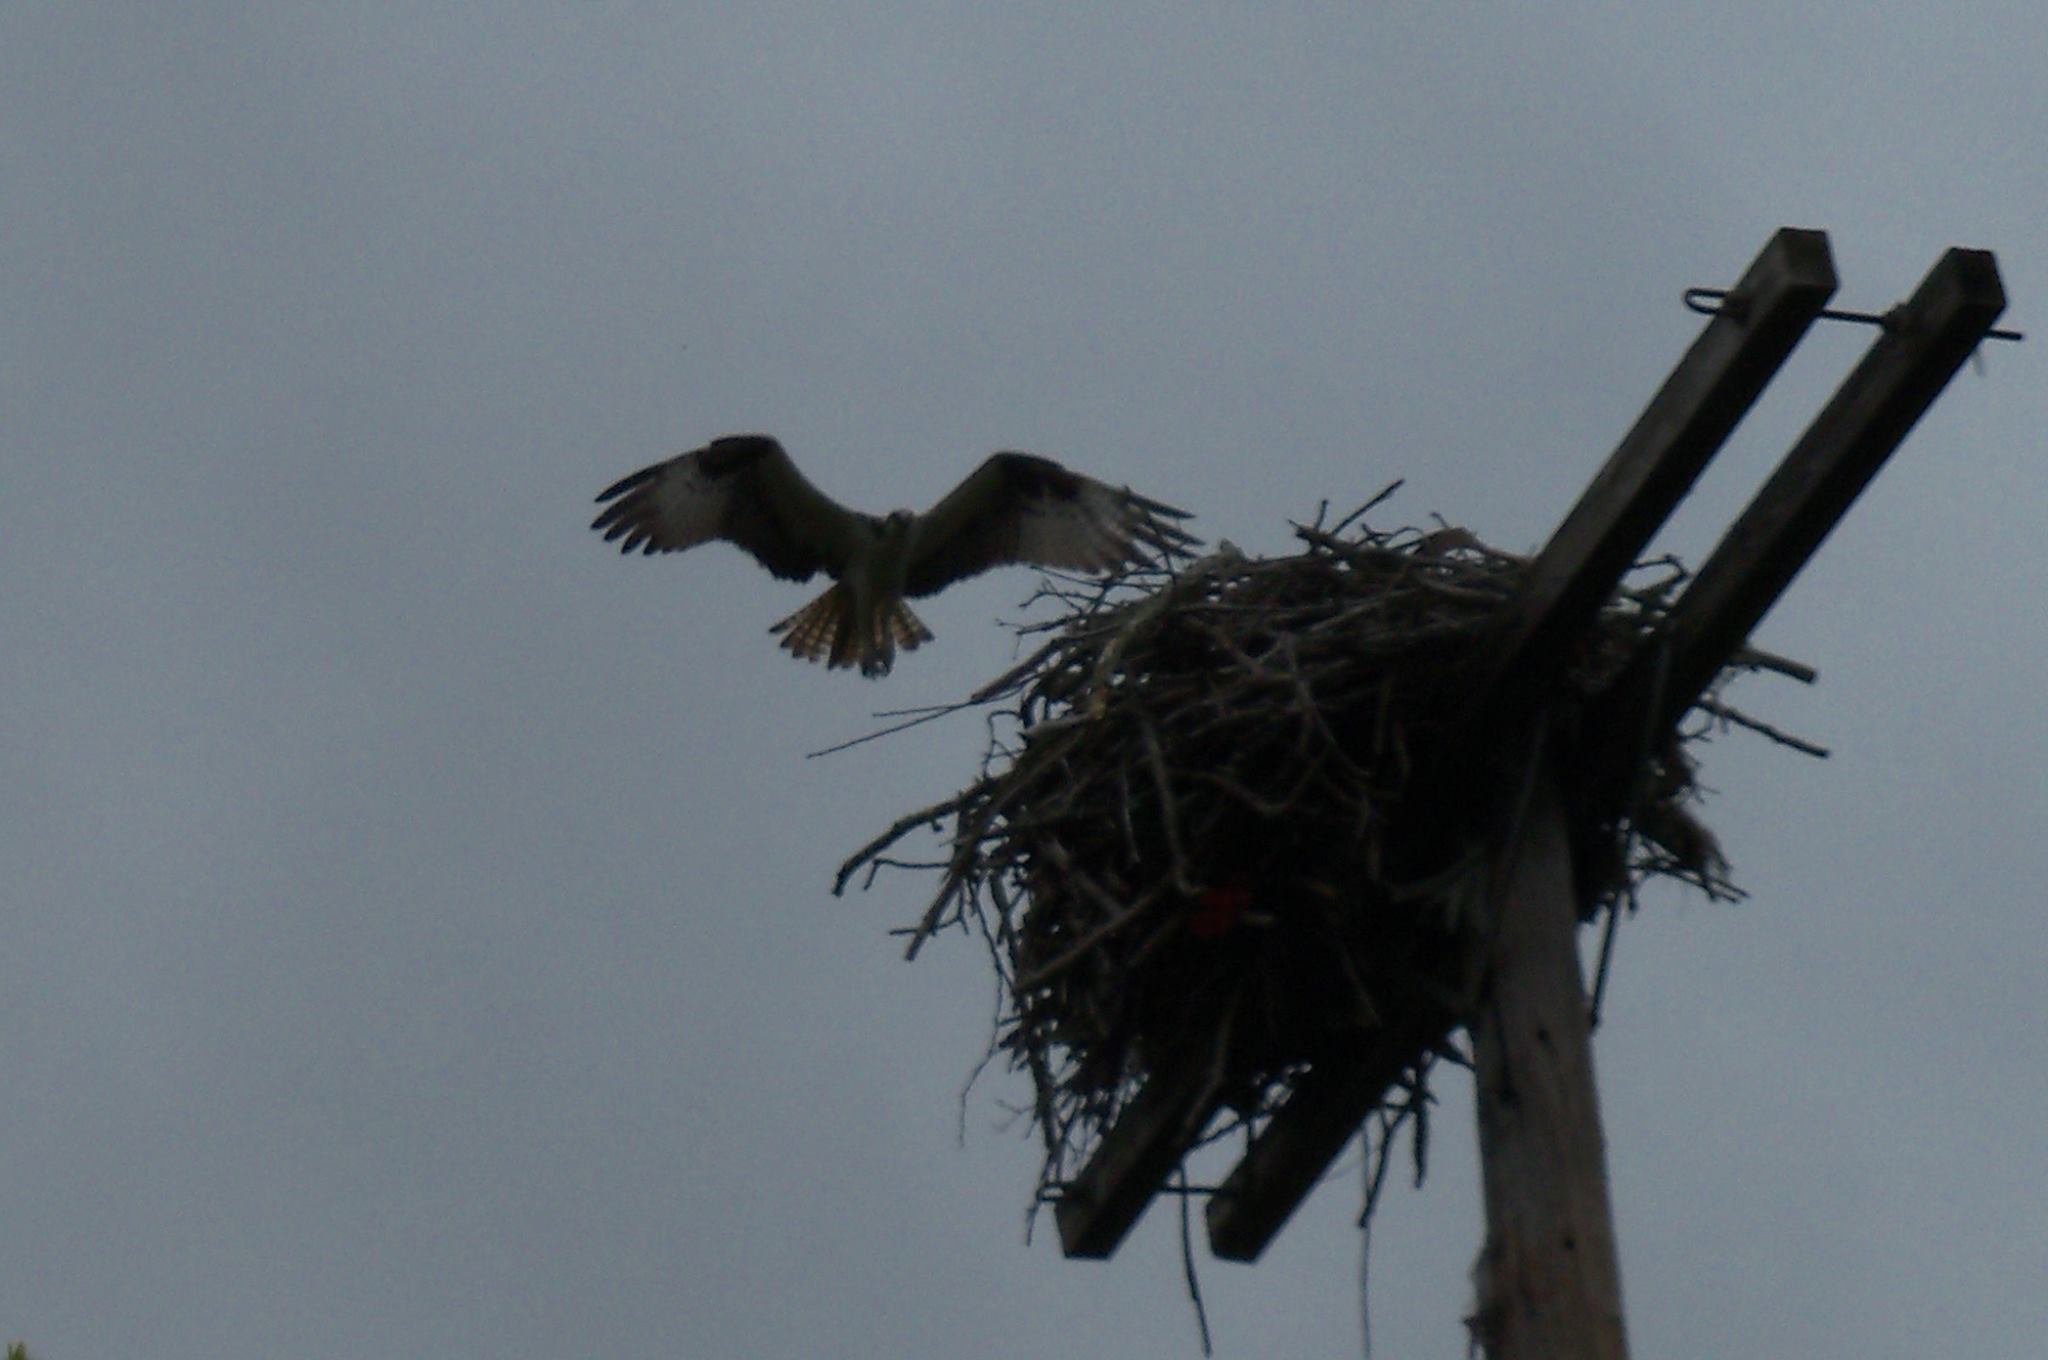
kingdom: Animalia
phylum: Chordata
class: Aves
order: Accipitriformes
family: Pandionidae
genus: Pandion
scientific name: Pandion haliaetus
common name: Osprey
